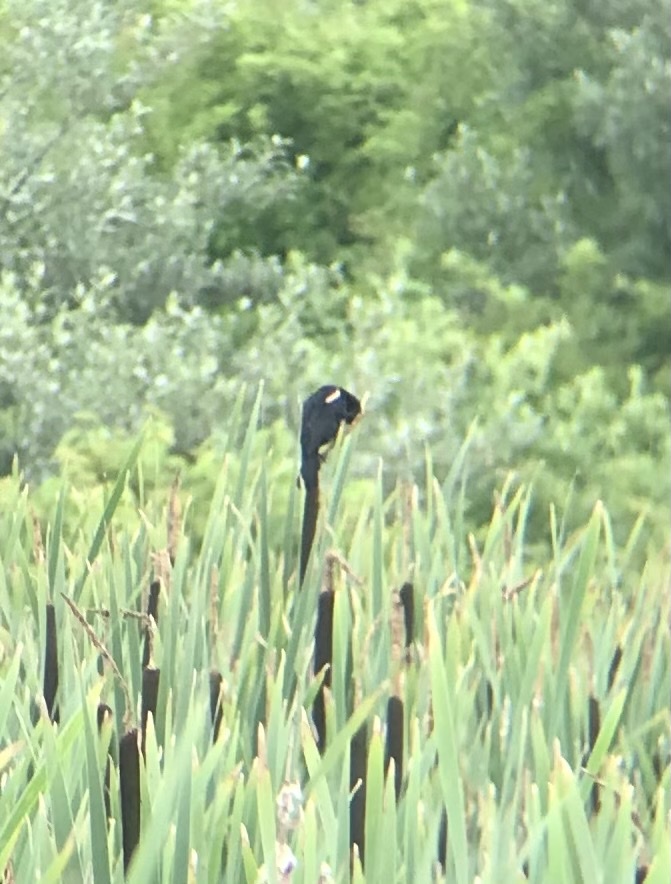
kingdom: Animalia
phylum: Chordata
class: Aves
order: Passeriformes
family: Icteridae
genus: Agelaius
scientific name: Agelaius phoeniceus
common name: Red-winged blackbird
